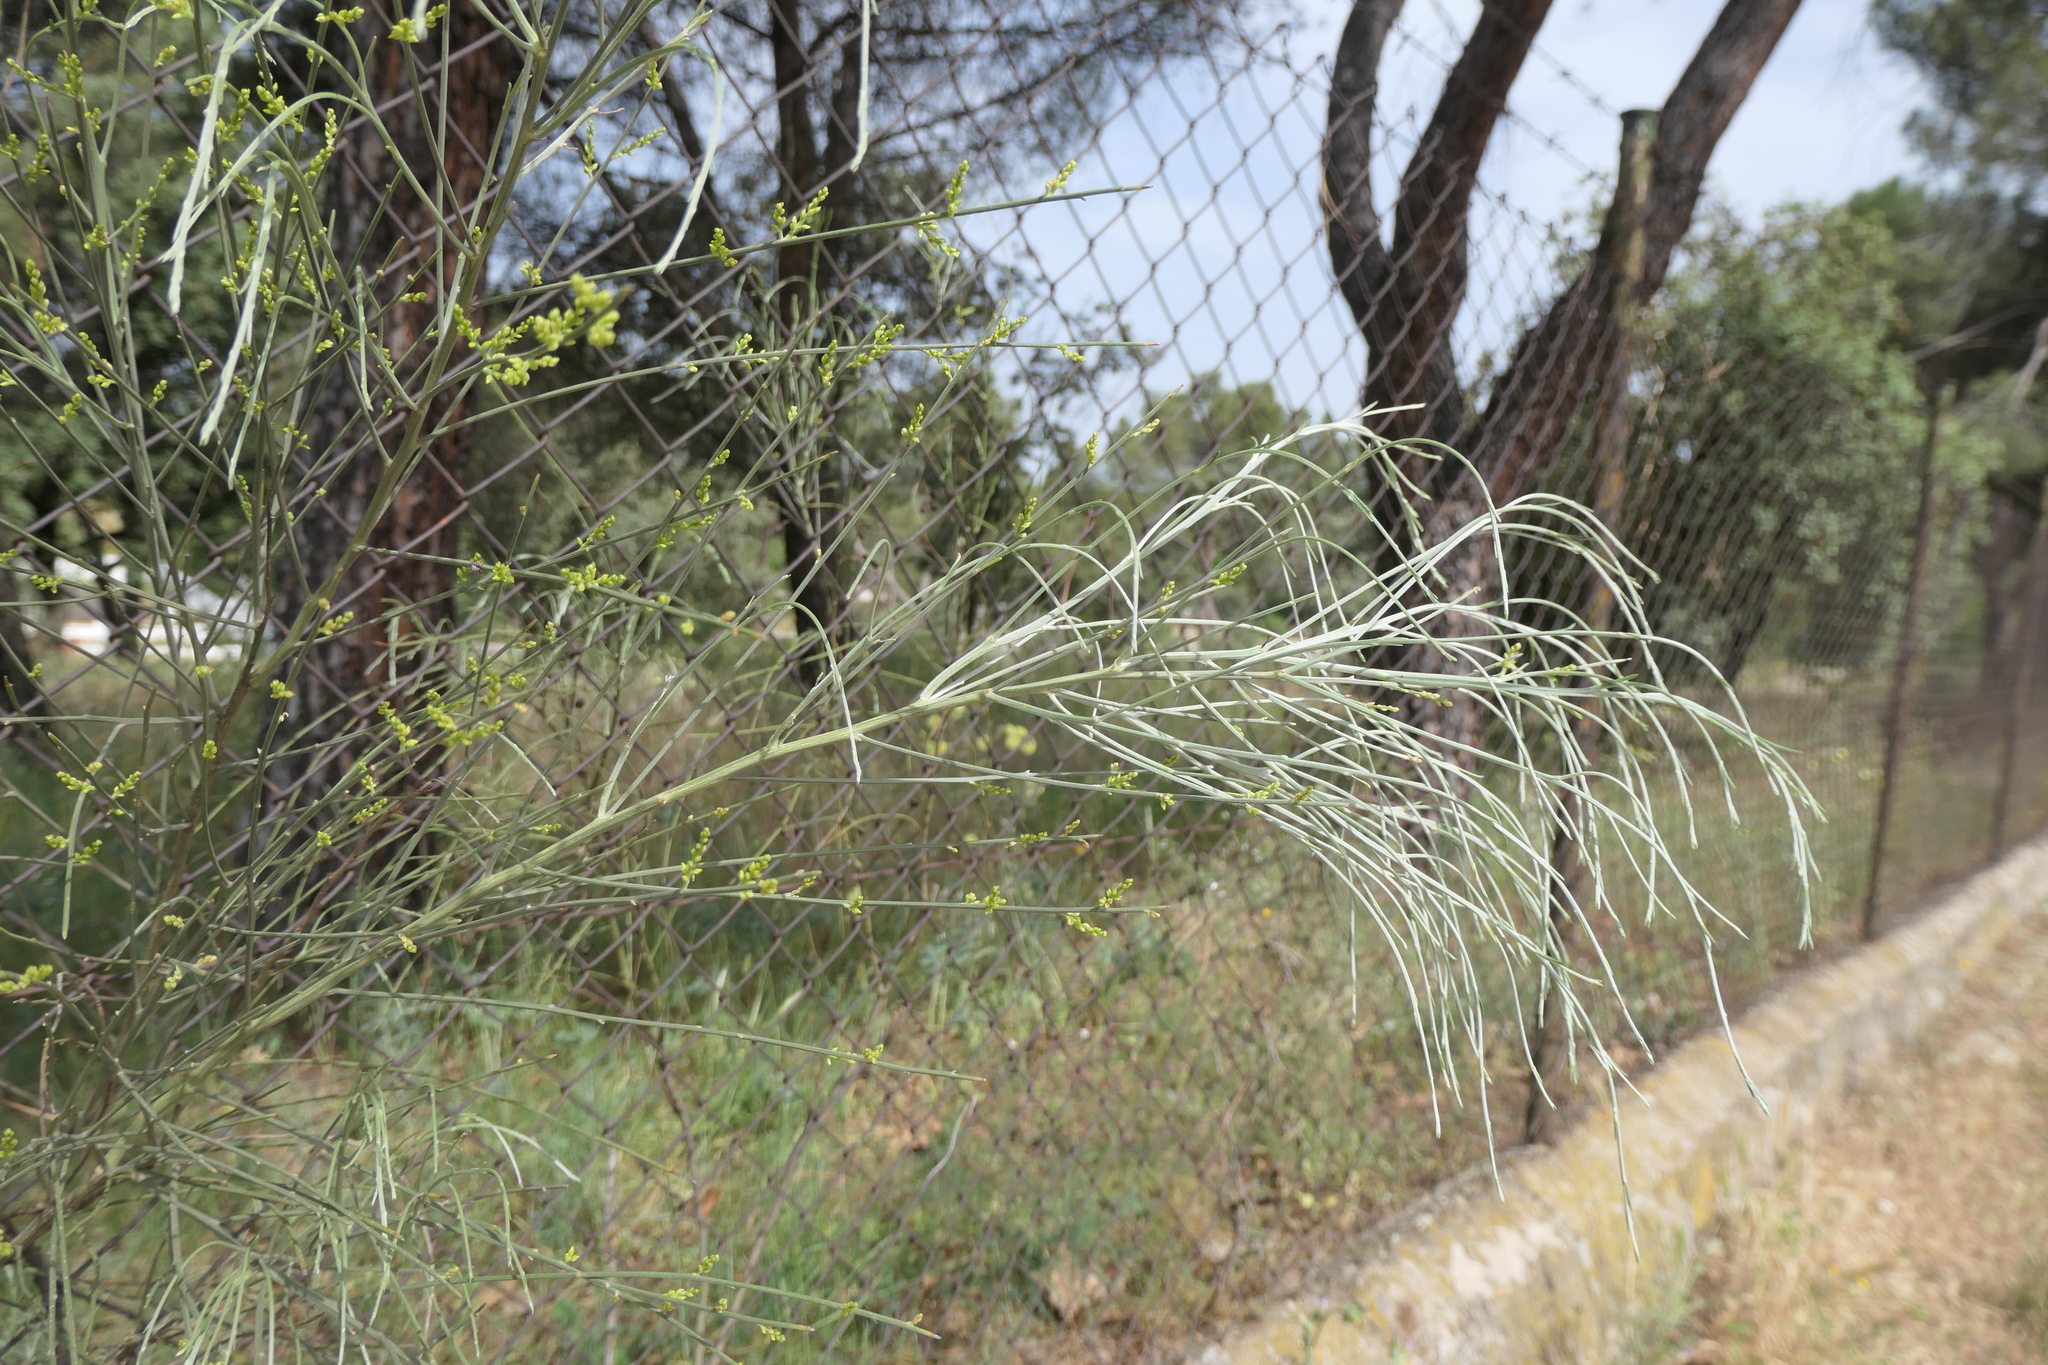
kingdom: Plantae
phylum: Tracheophyta
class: Magnoliopsida
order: Fabales
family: Fabaceae
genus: Retama
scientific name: Retama sphaerocarpa
